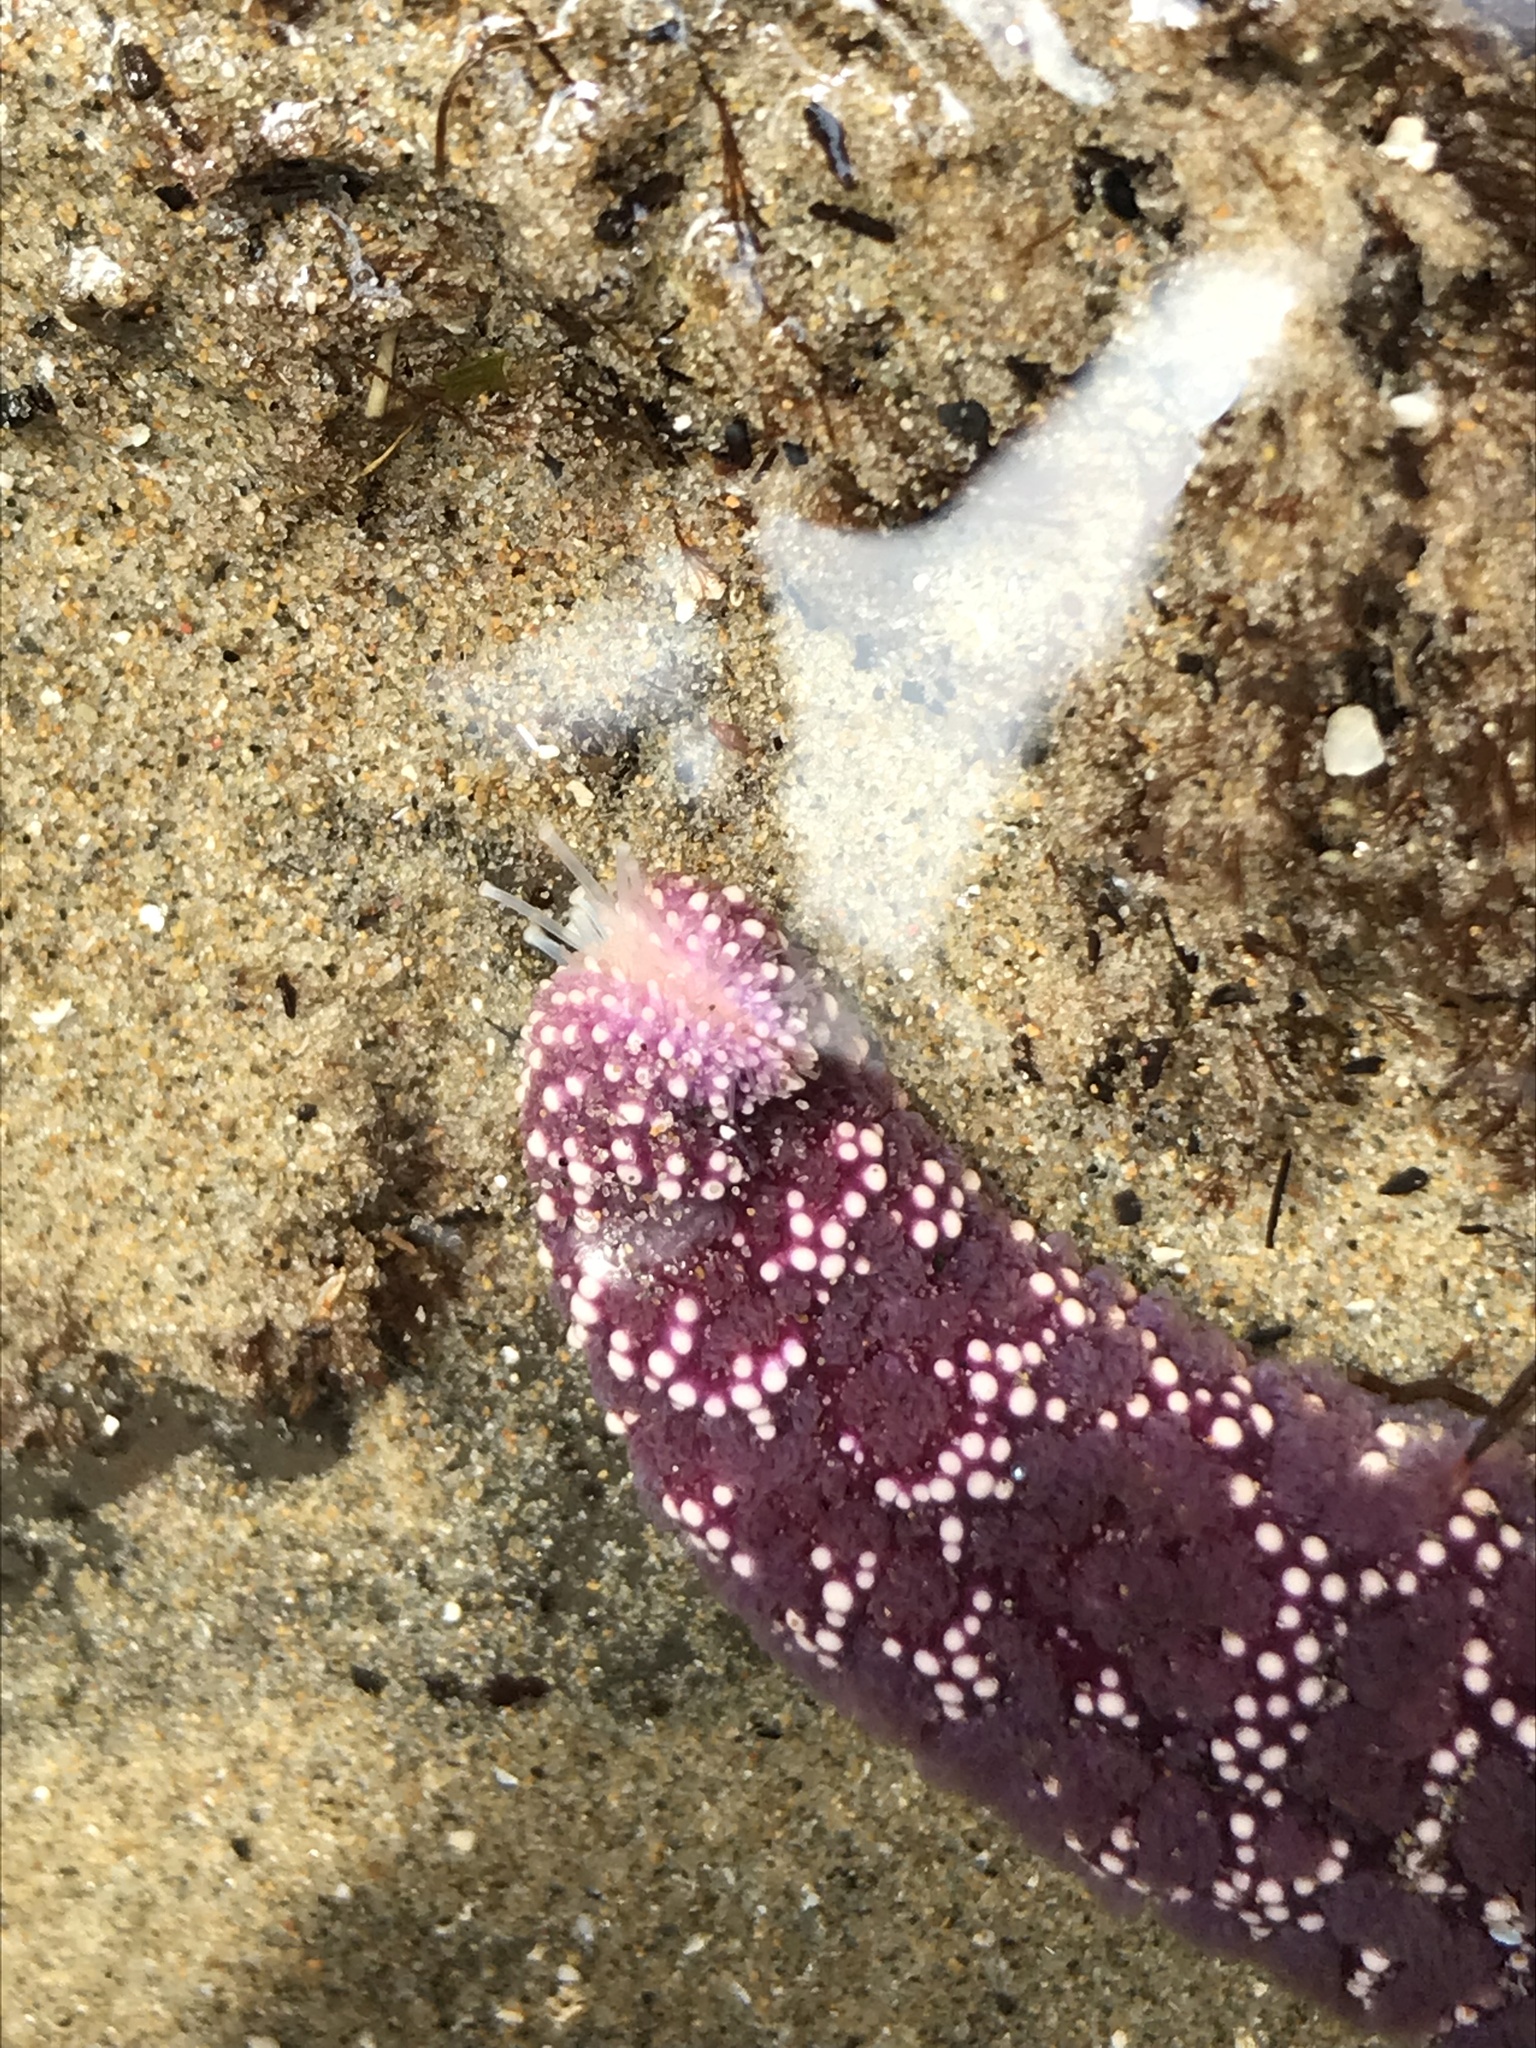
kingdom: Animalia
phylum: Echinodermata
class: Asteroidea
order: Forcipulatida
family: Asteriidae
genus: Pisaster
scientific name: Pisaster ochraceus
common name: Ochre stars
